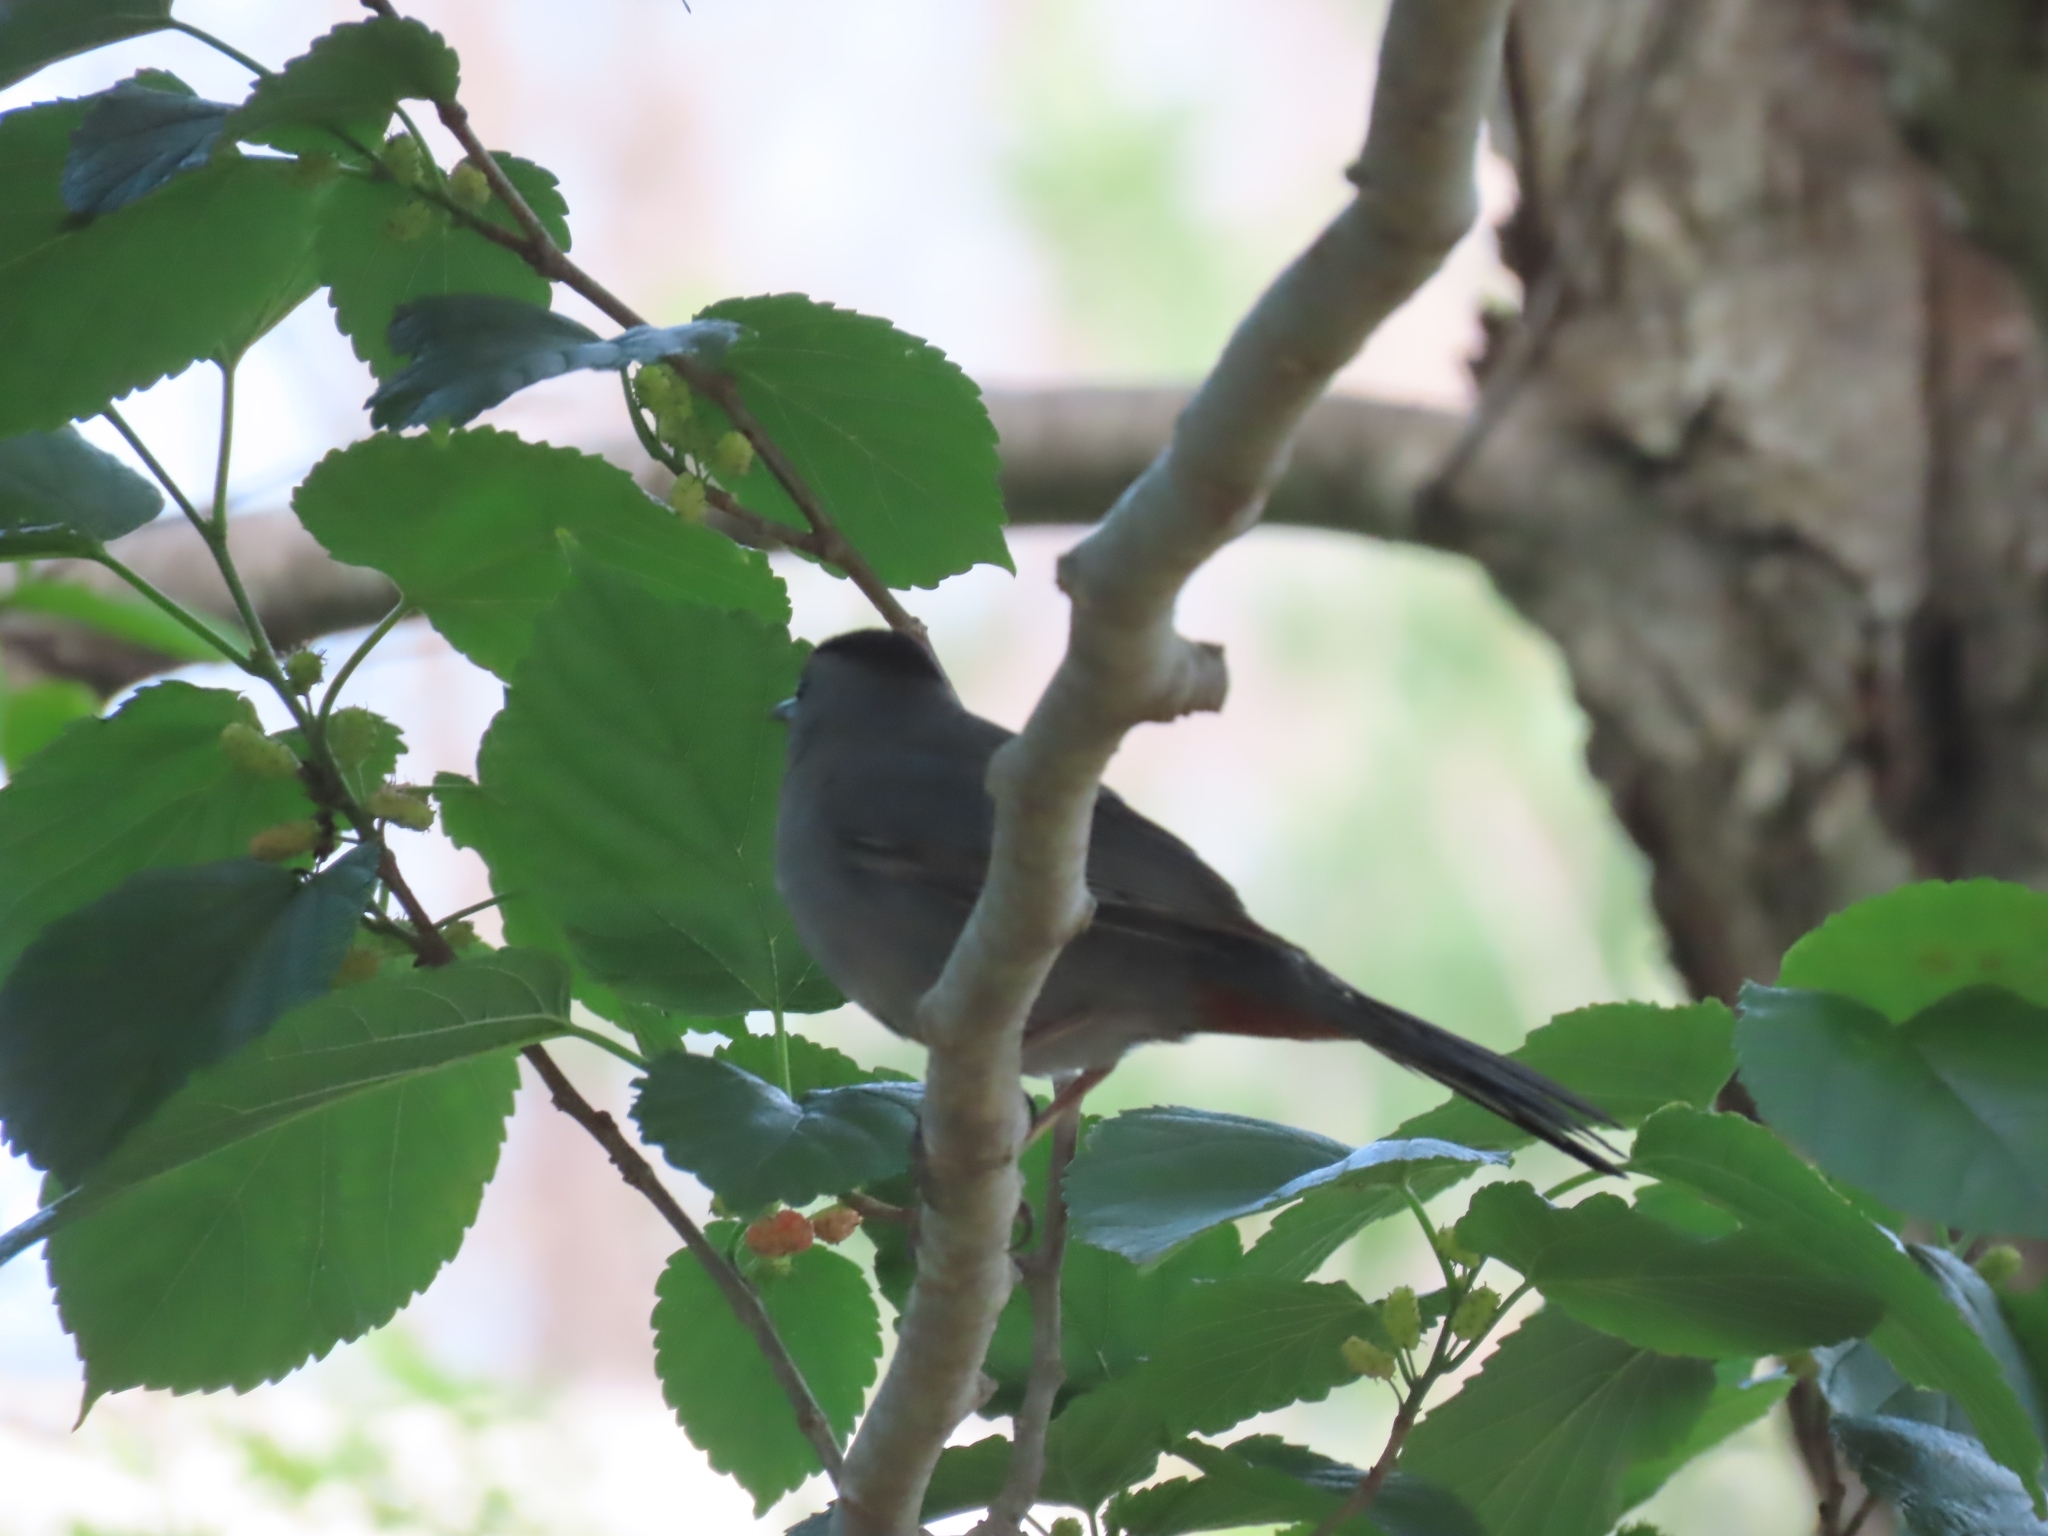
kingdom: Animalia
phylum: Chordata
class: Aves
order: Passeriformes
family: Mimidae
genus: Dumetella
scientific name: Dumetella carolinensis
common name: Gray catbird
